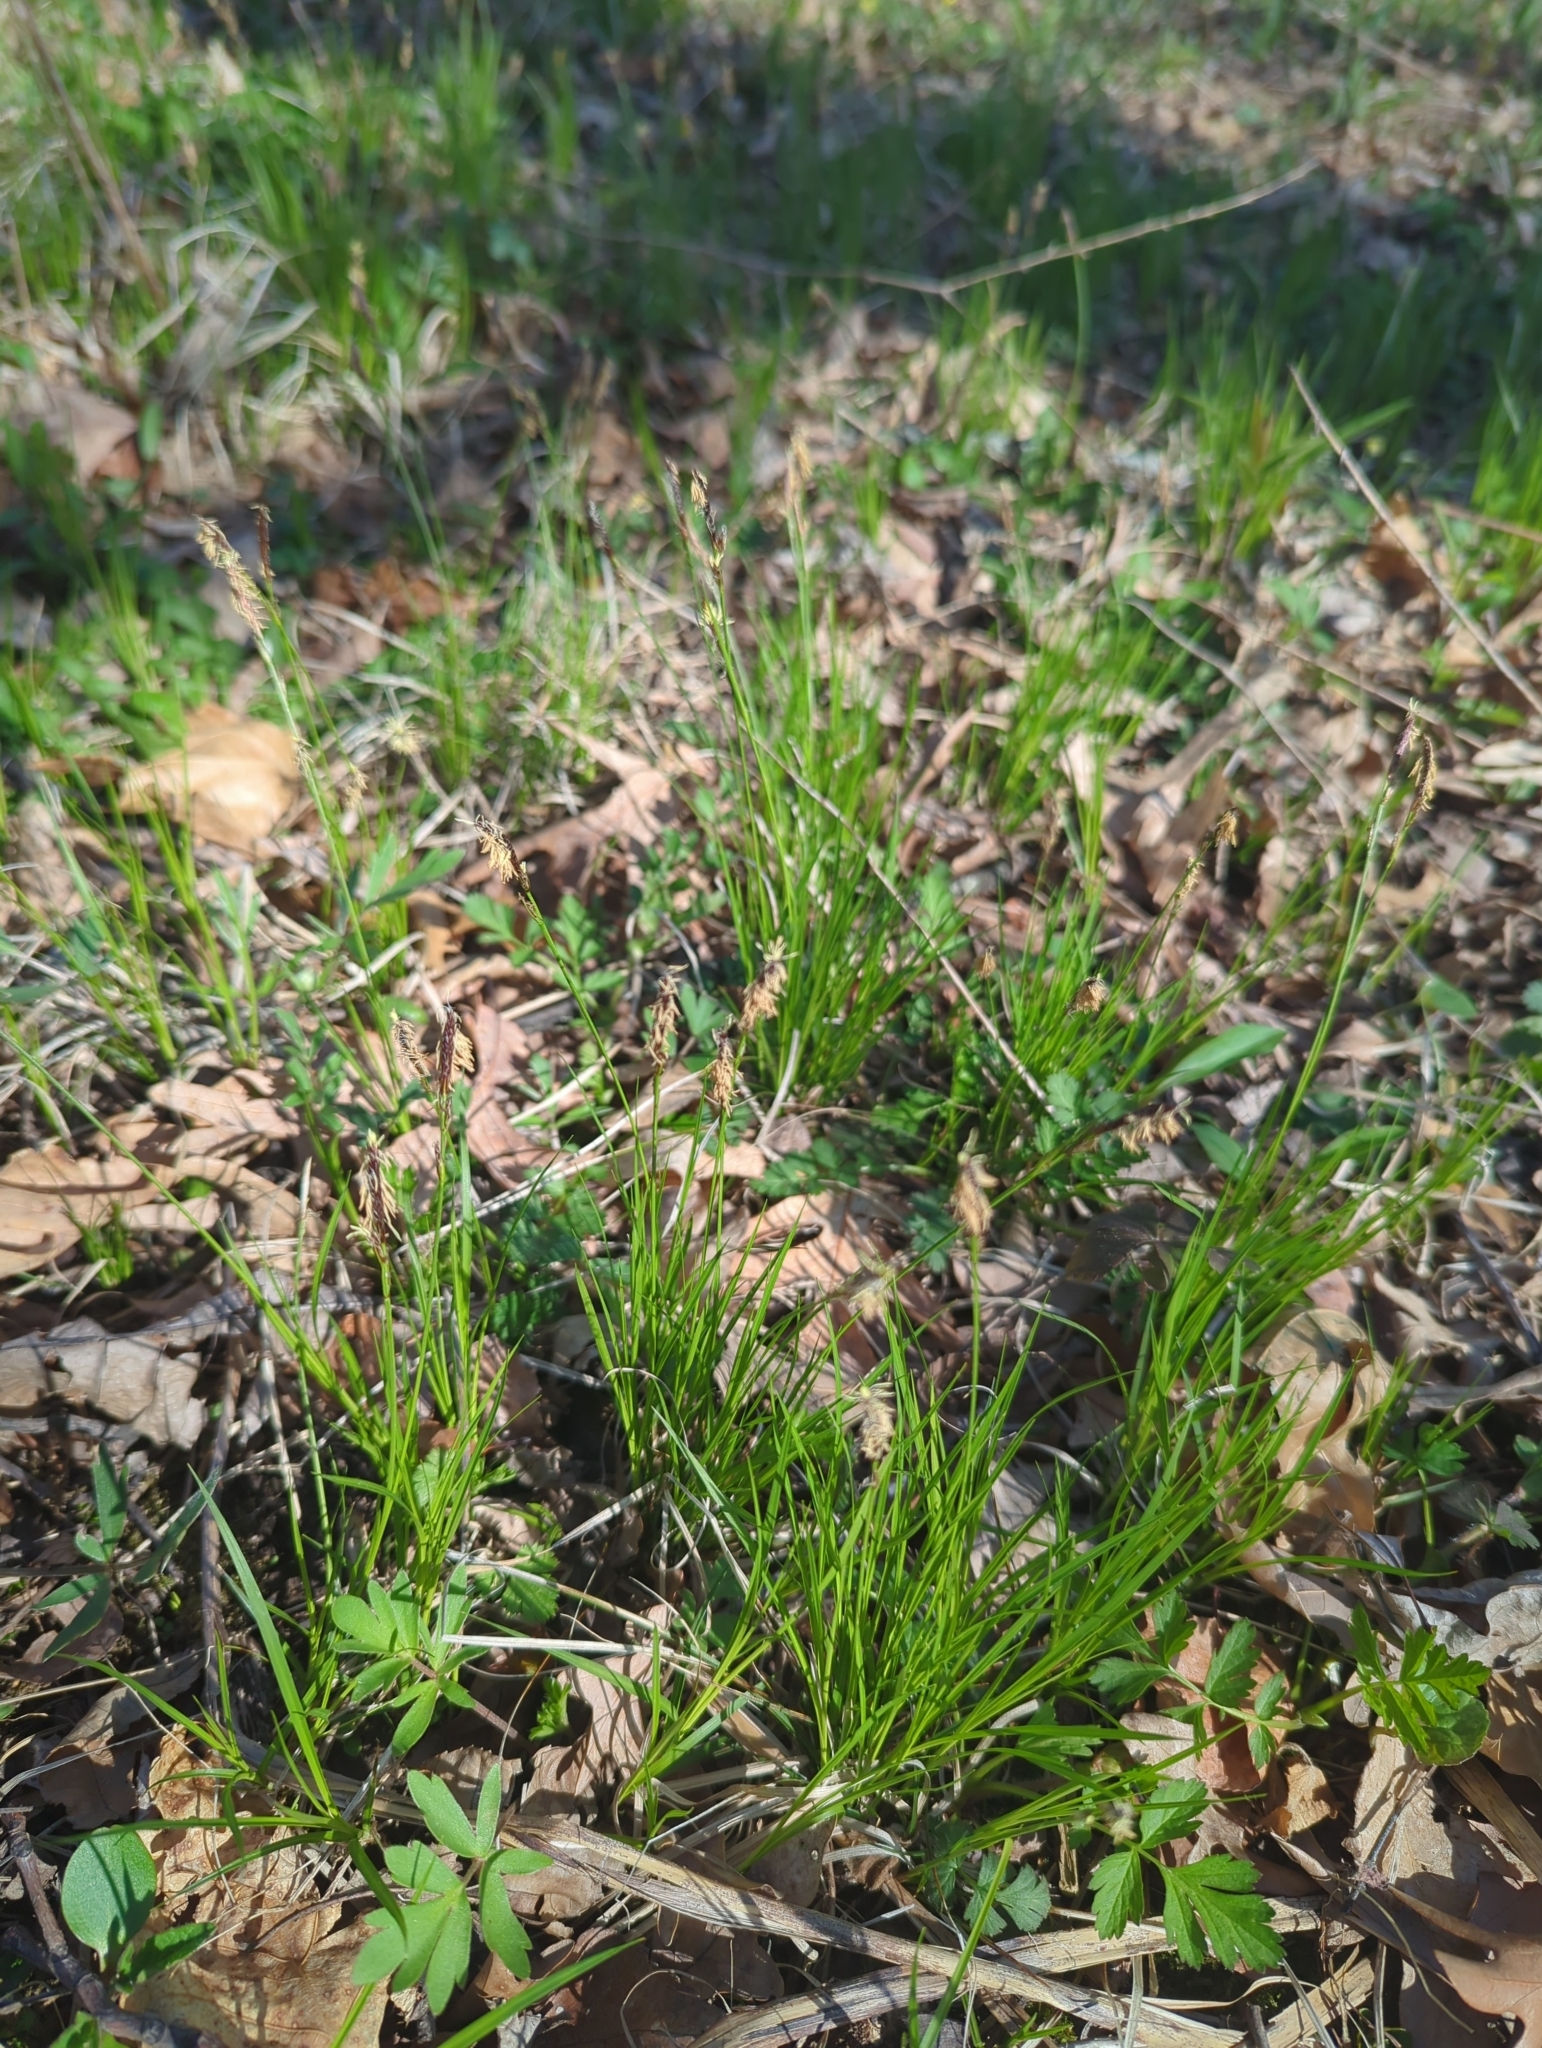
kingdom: Plantae
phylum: Tracheophyta
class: Liliopsida
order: Poales
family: Cyperaceae
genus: Carex
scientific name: Carex pensylvanica
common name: Common oak sedge
